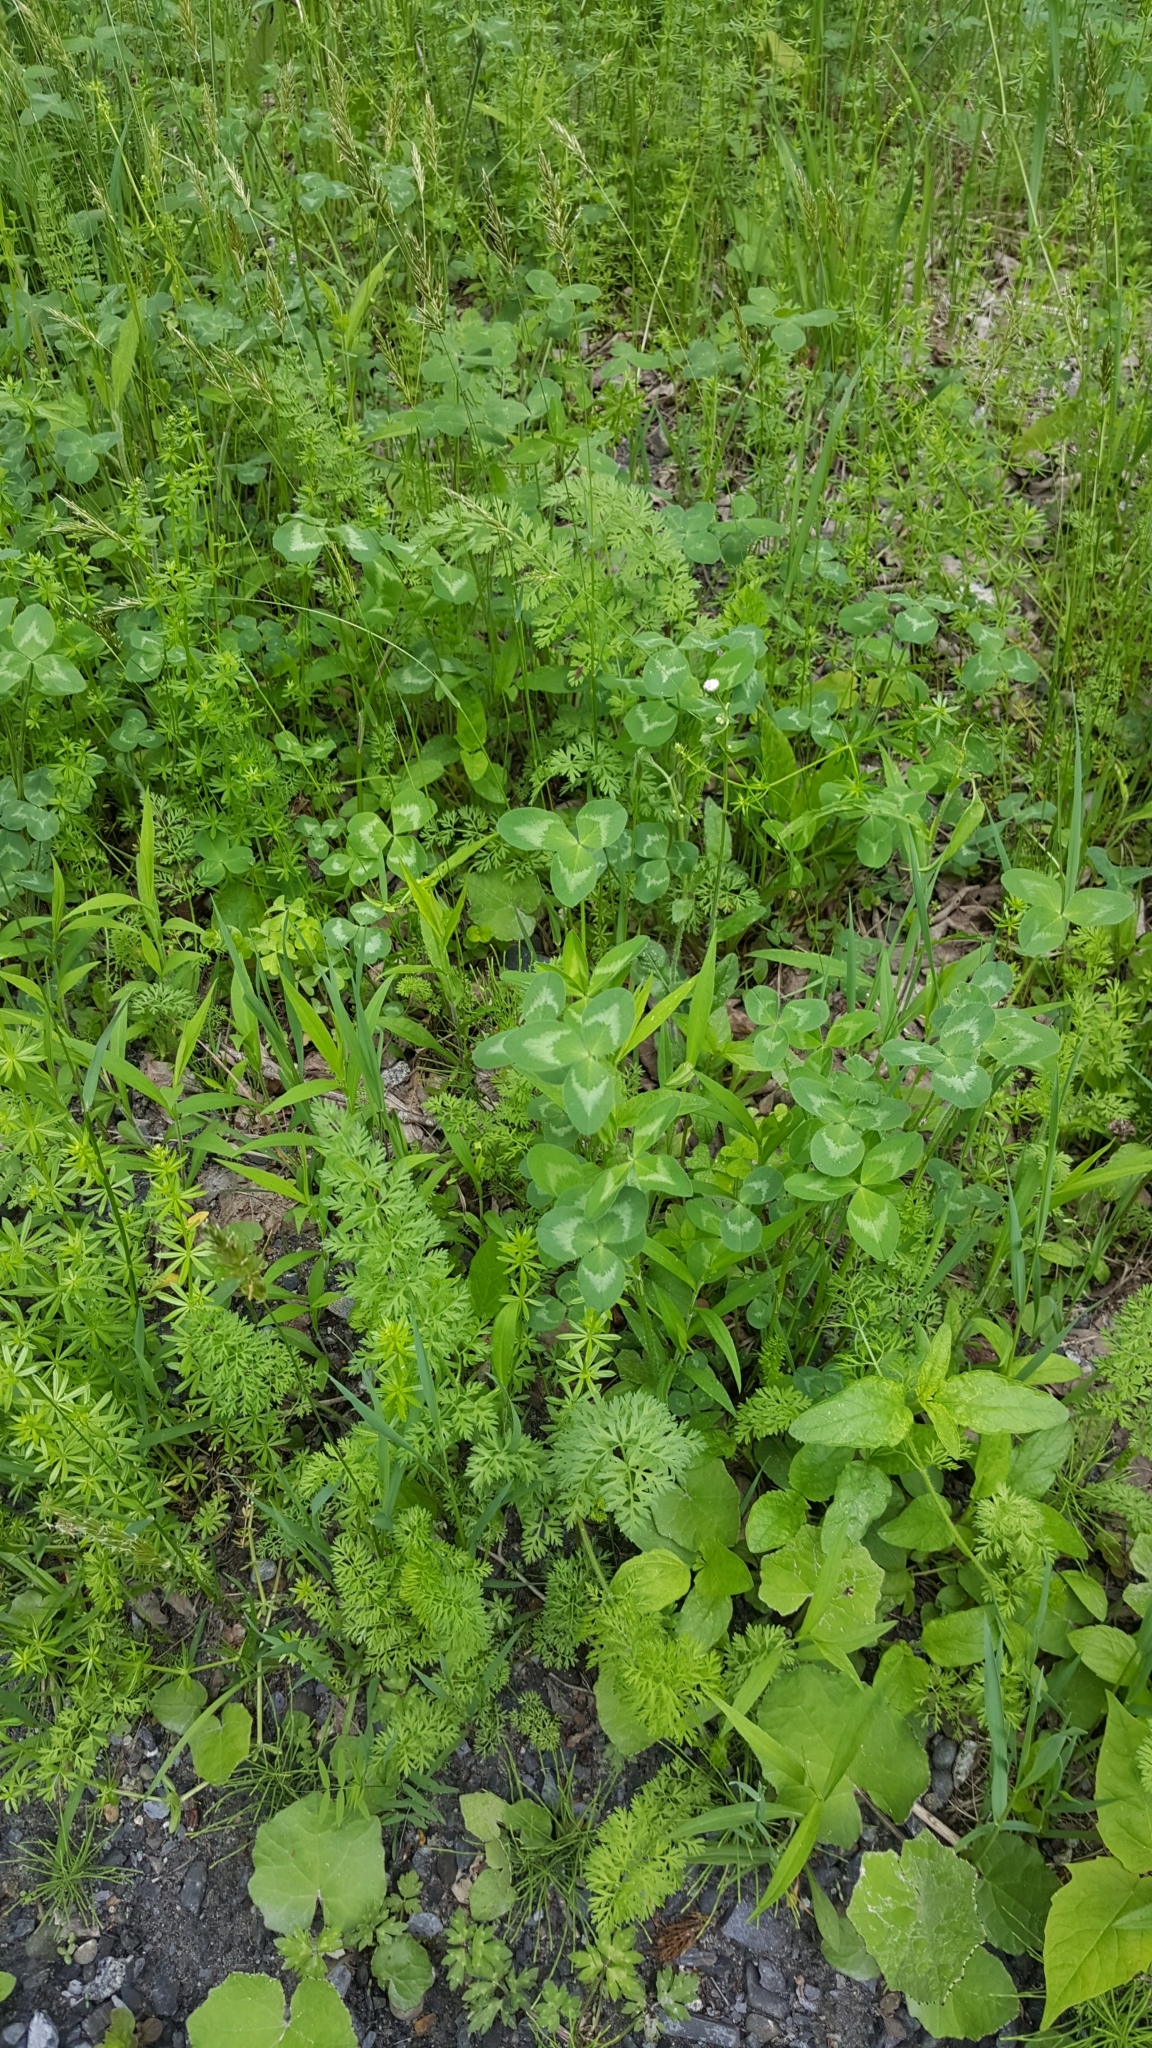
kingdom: Plantae
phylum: Tracheophyta
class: Magnoliopsida
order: Fabales
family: Fabaceae
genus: Trifolium
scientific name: Trifolium pratense
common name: Red clover
